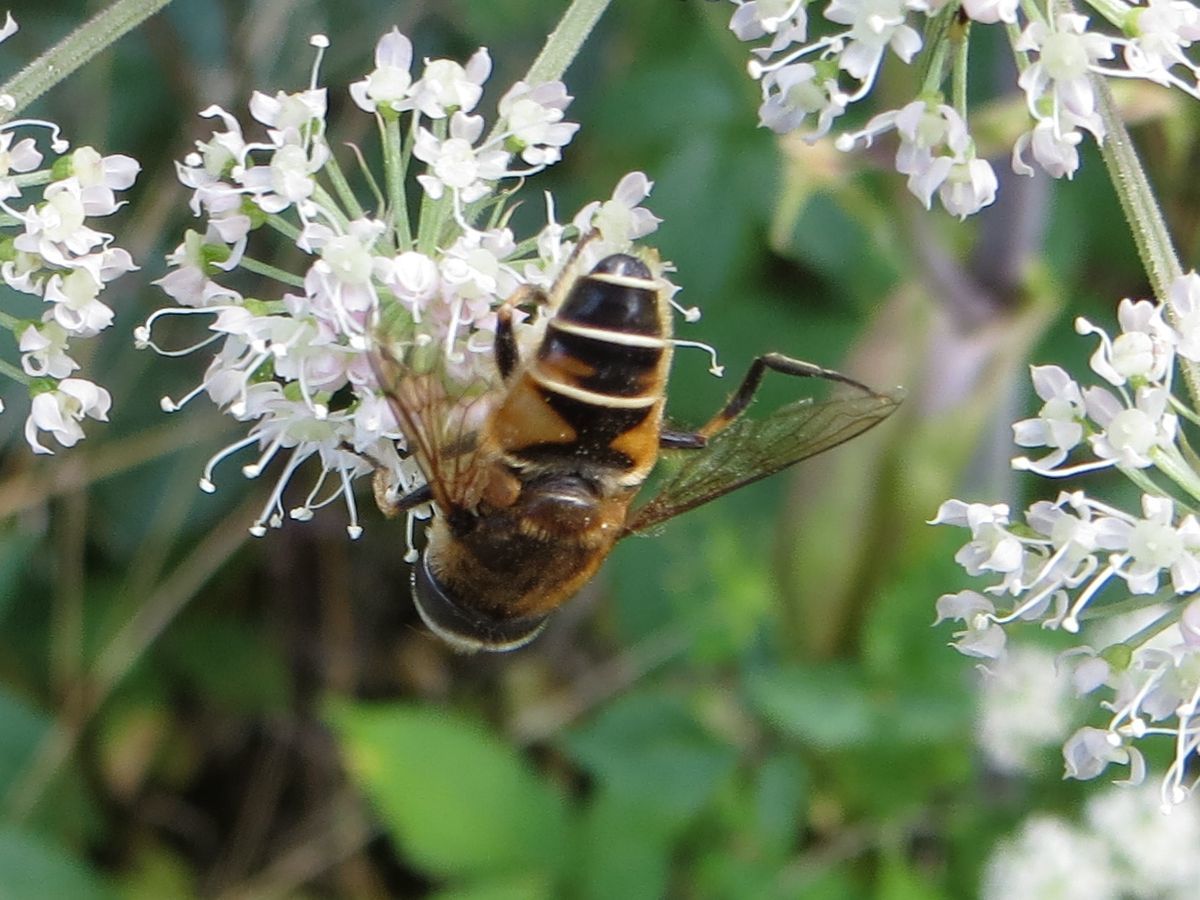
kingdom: Animalia
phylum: Arthropoda
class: Insecta
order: Diptera
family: Syrphidae
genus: Eristalis
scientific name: Eristalis nemorum
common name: Orange-spined drone fly
